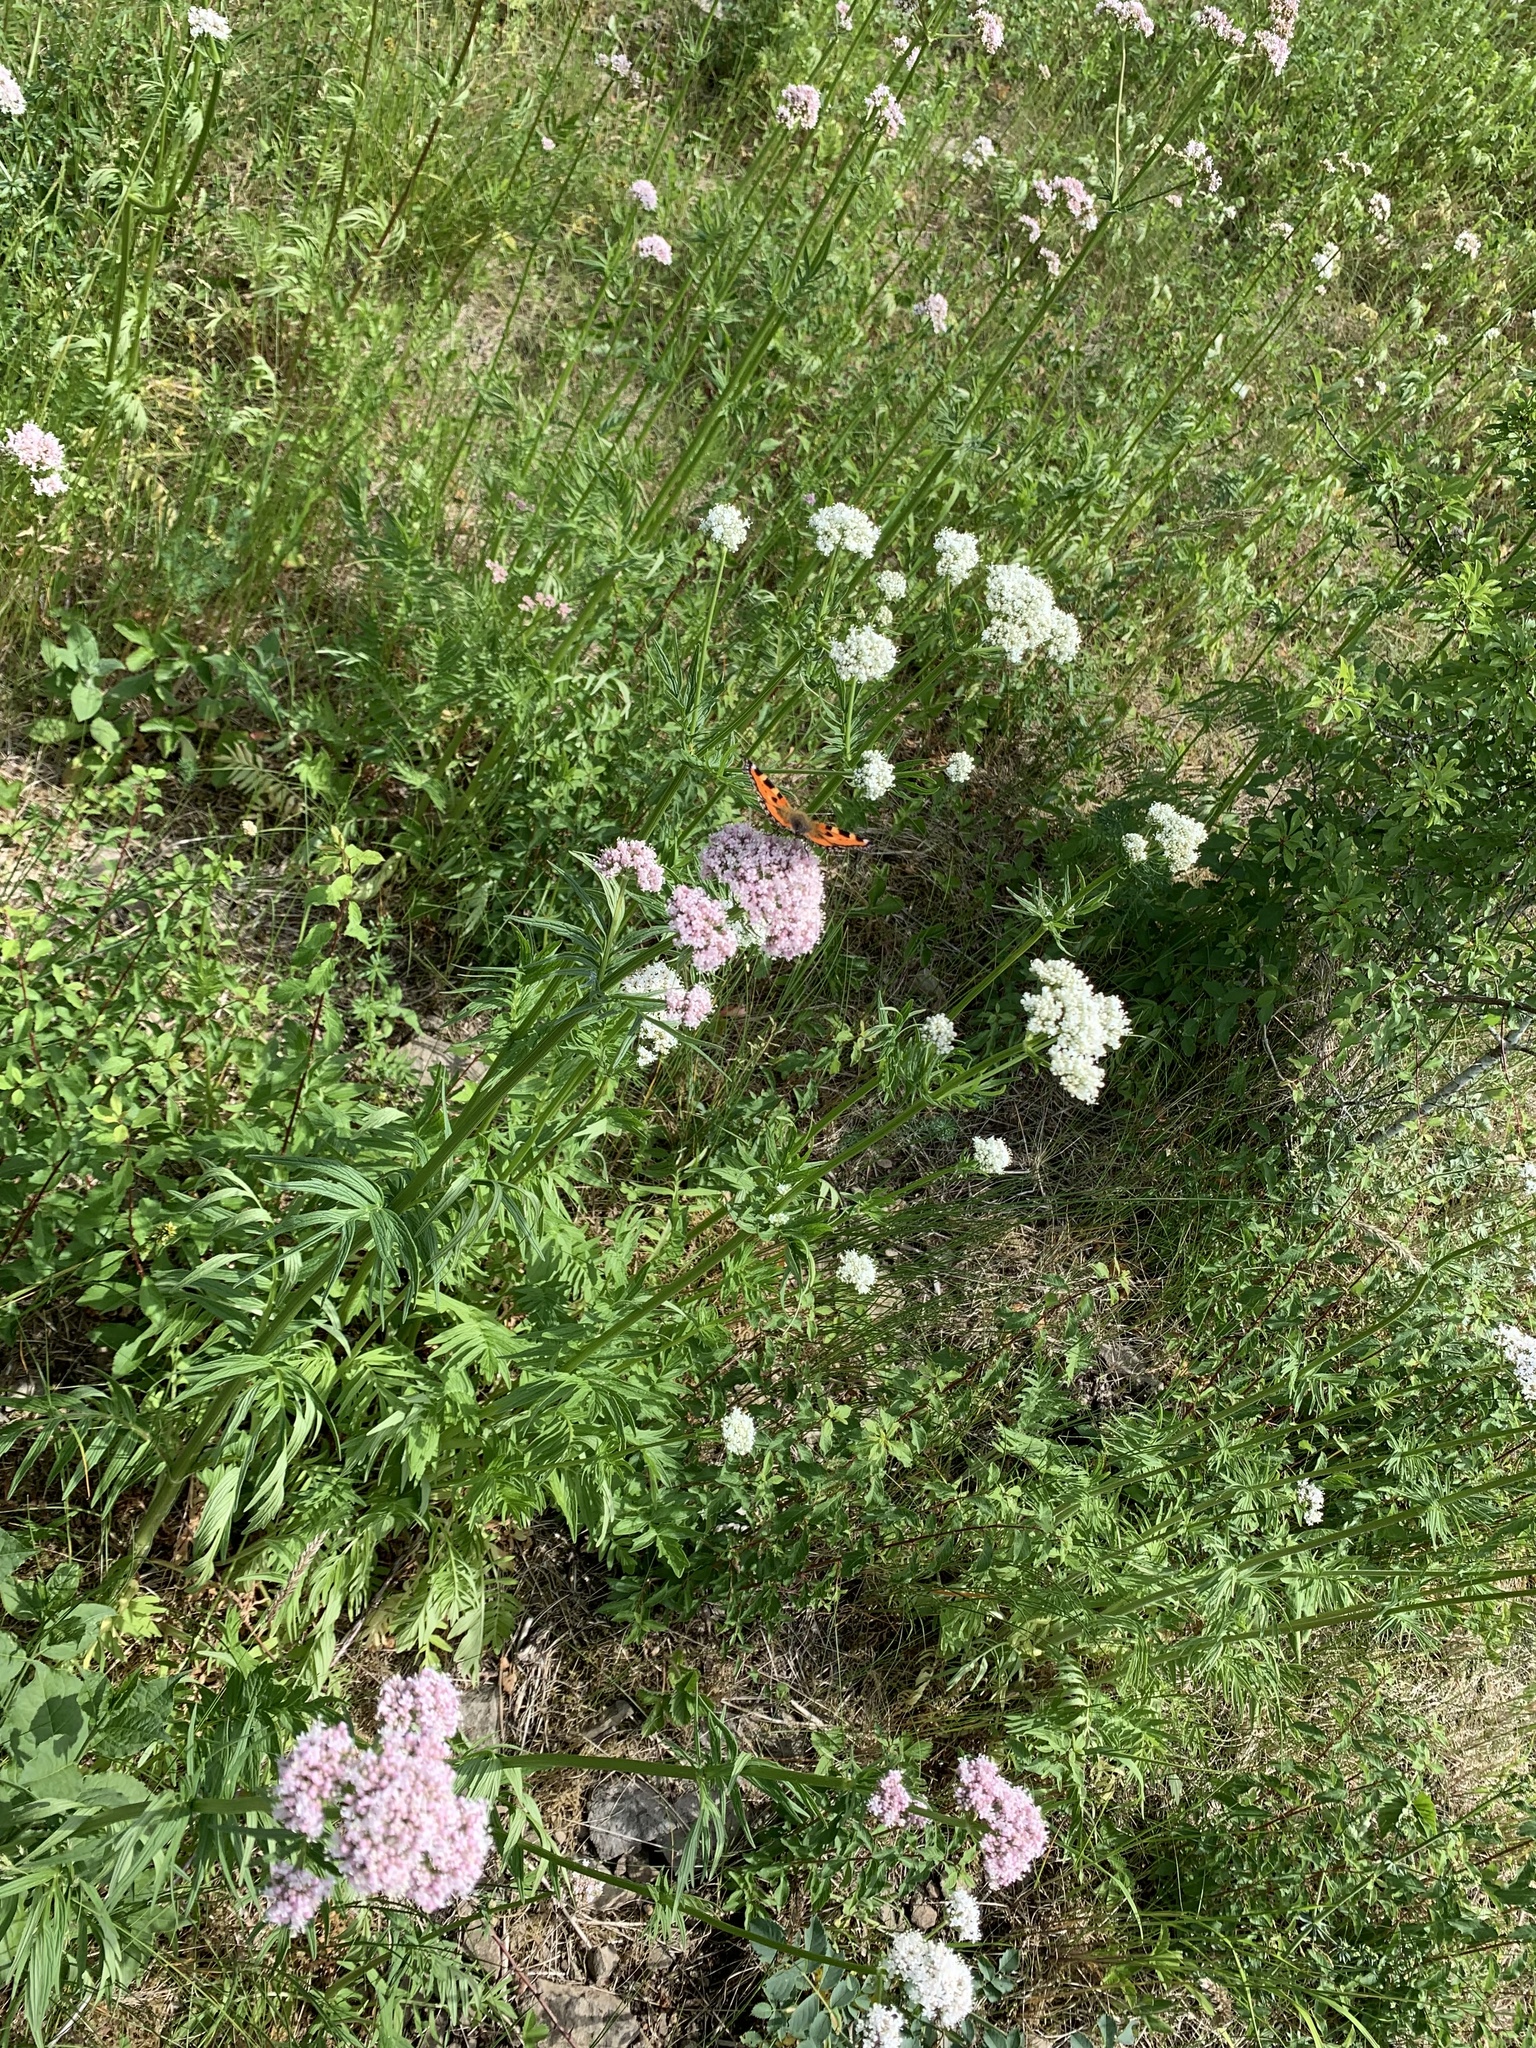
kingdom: Plantae
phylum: Tracheophyta
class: Magnoliopsida
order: Dipsacales
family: Caprifoliaceae
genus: Valeriana
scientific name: Valeriana officinalis
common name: Common valerian
